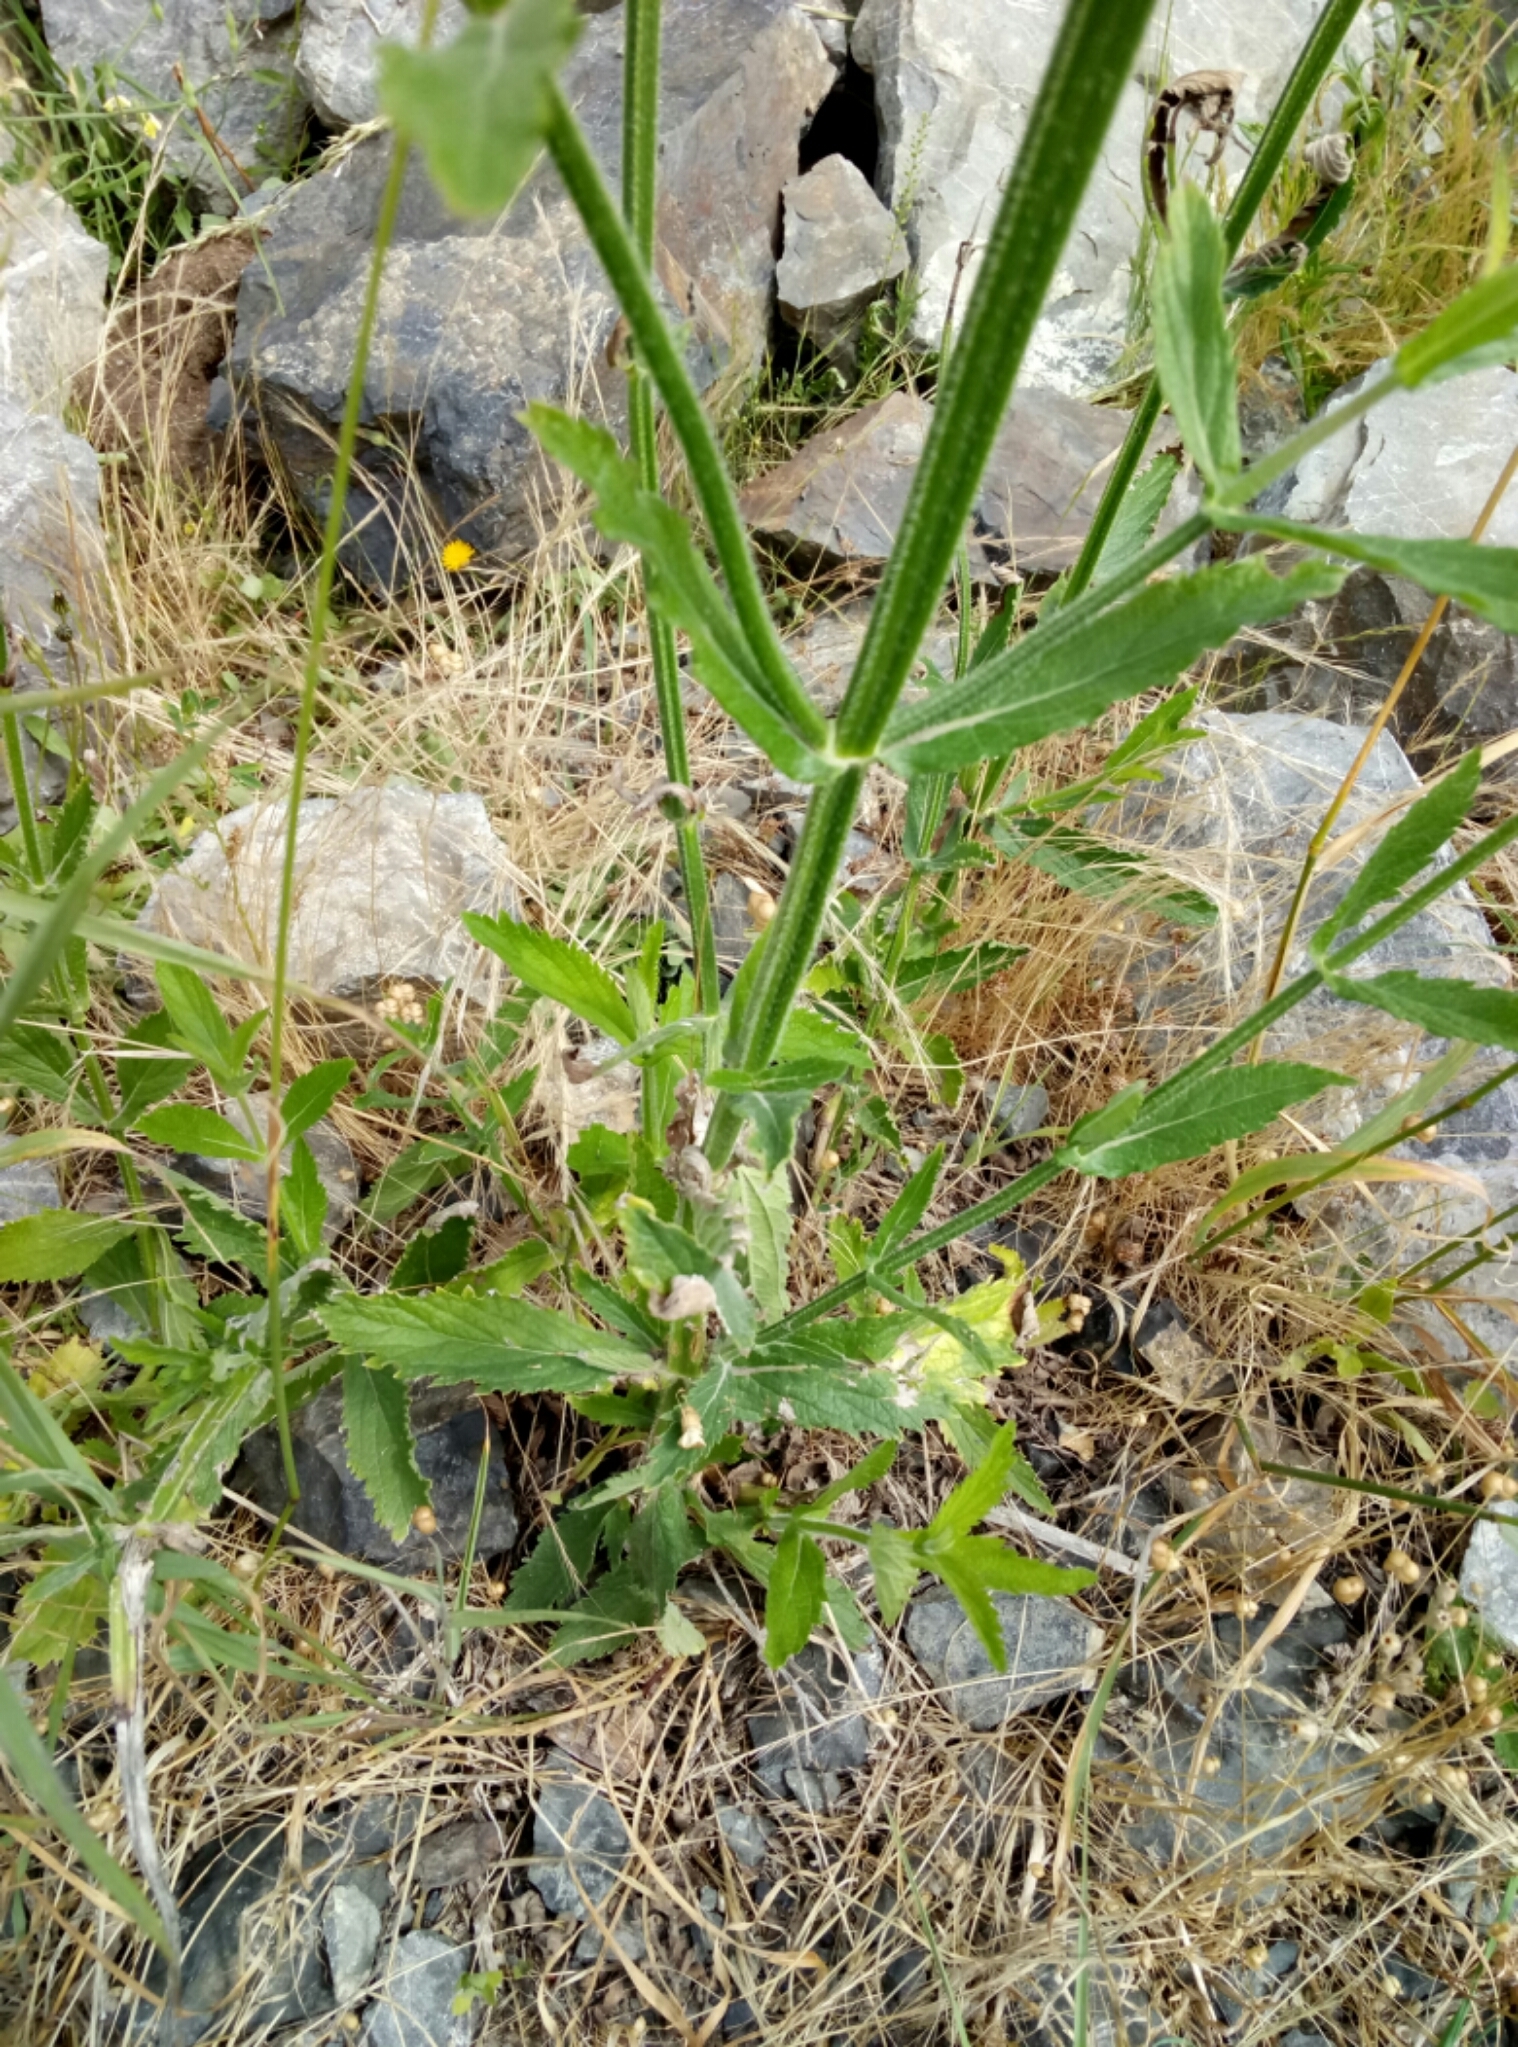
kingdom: Plantae
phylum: Tracheophyta
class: Magnoliopsida
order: Lamiales
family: Verbenaceae
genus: Verbena
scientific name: Verbena bonariensis
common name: Purpletop vervain
